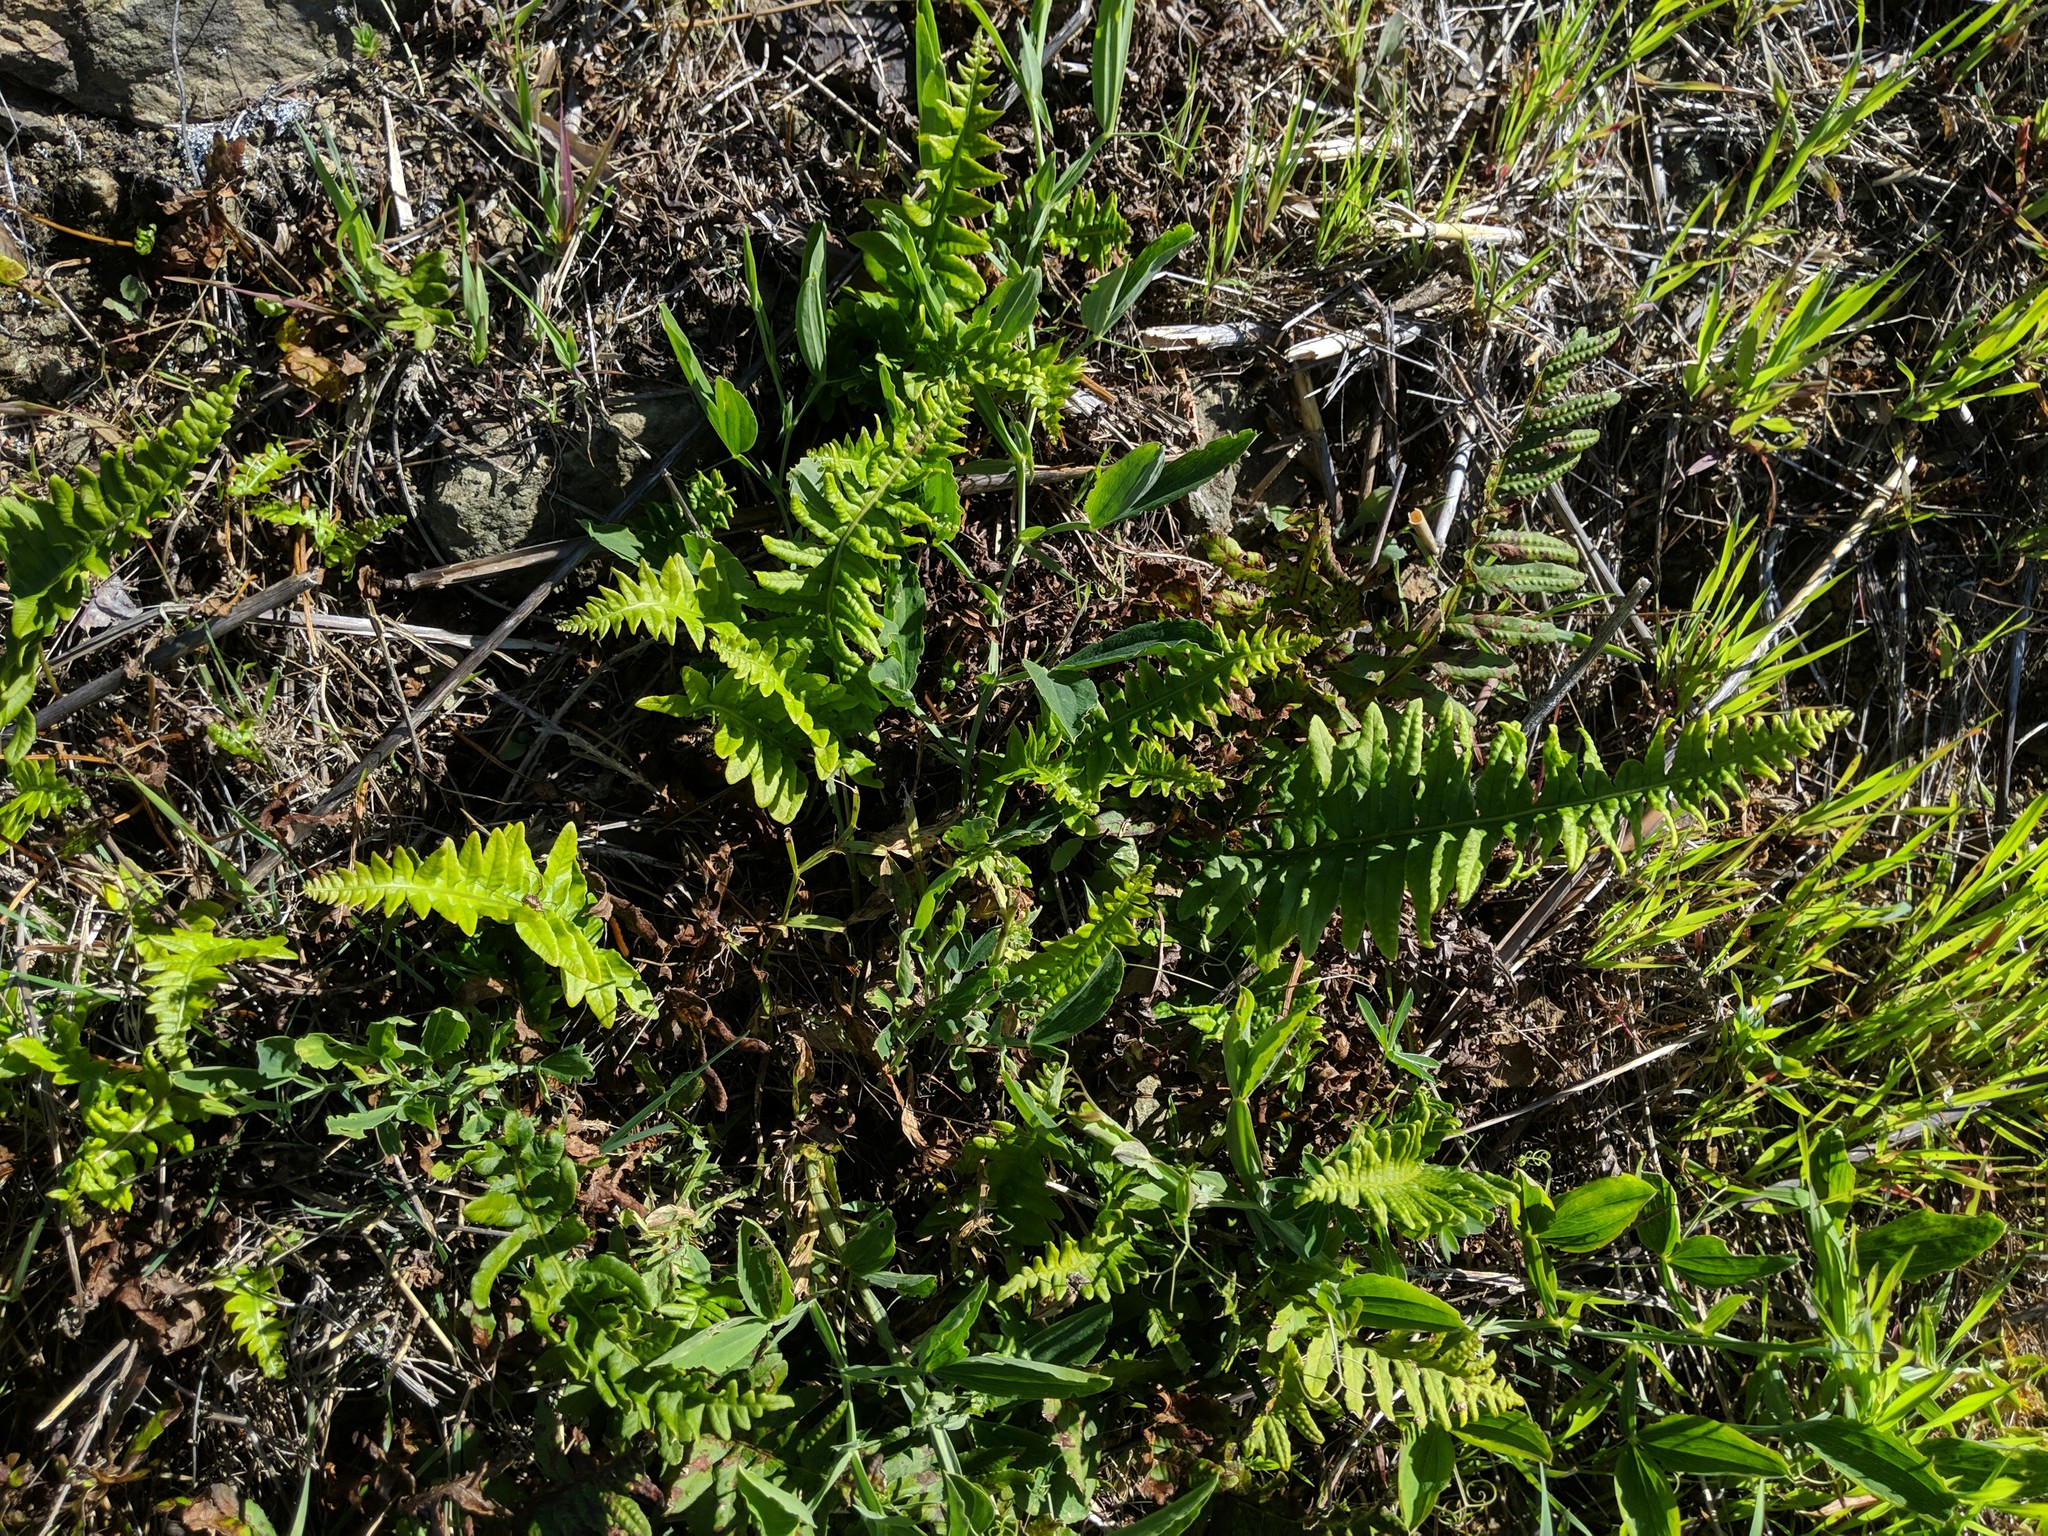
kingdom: Plantae
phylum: Tracheophyta
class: Polypodiopsida
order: Polypodiales
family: Polypodiaceae
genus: Polypodium
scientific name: Polypodium calirhiza
